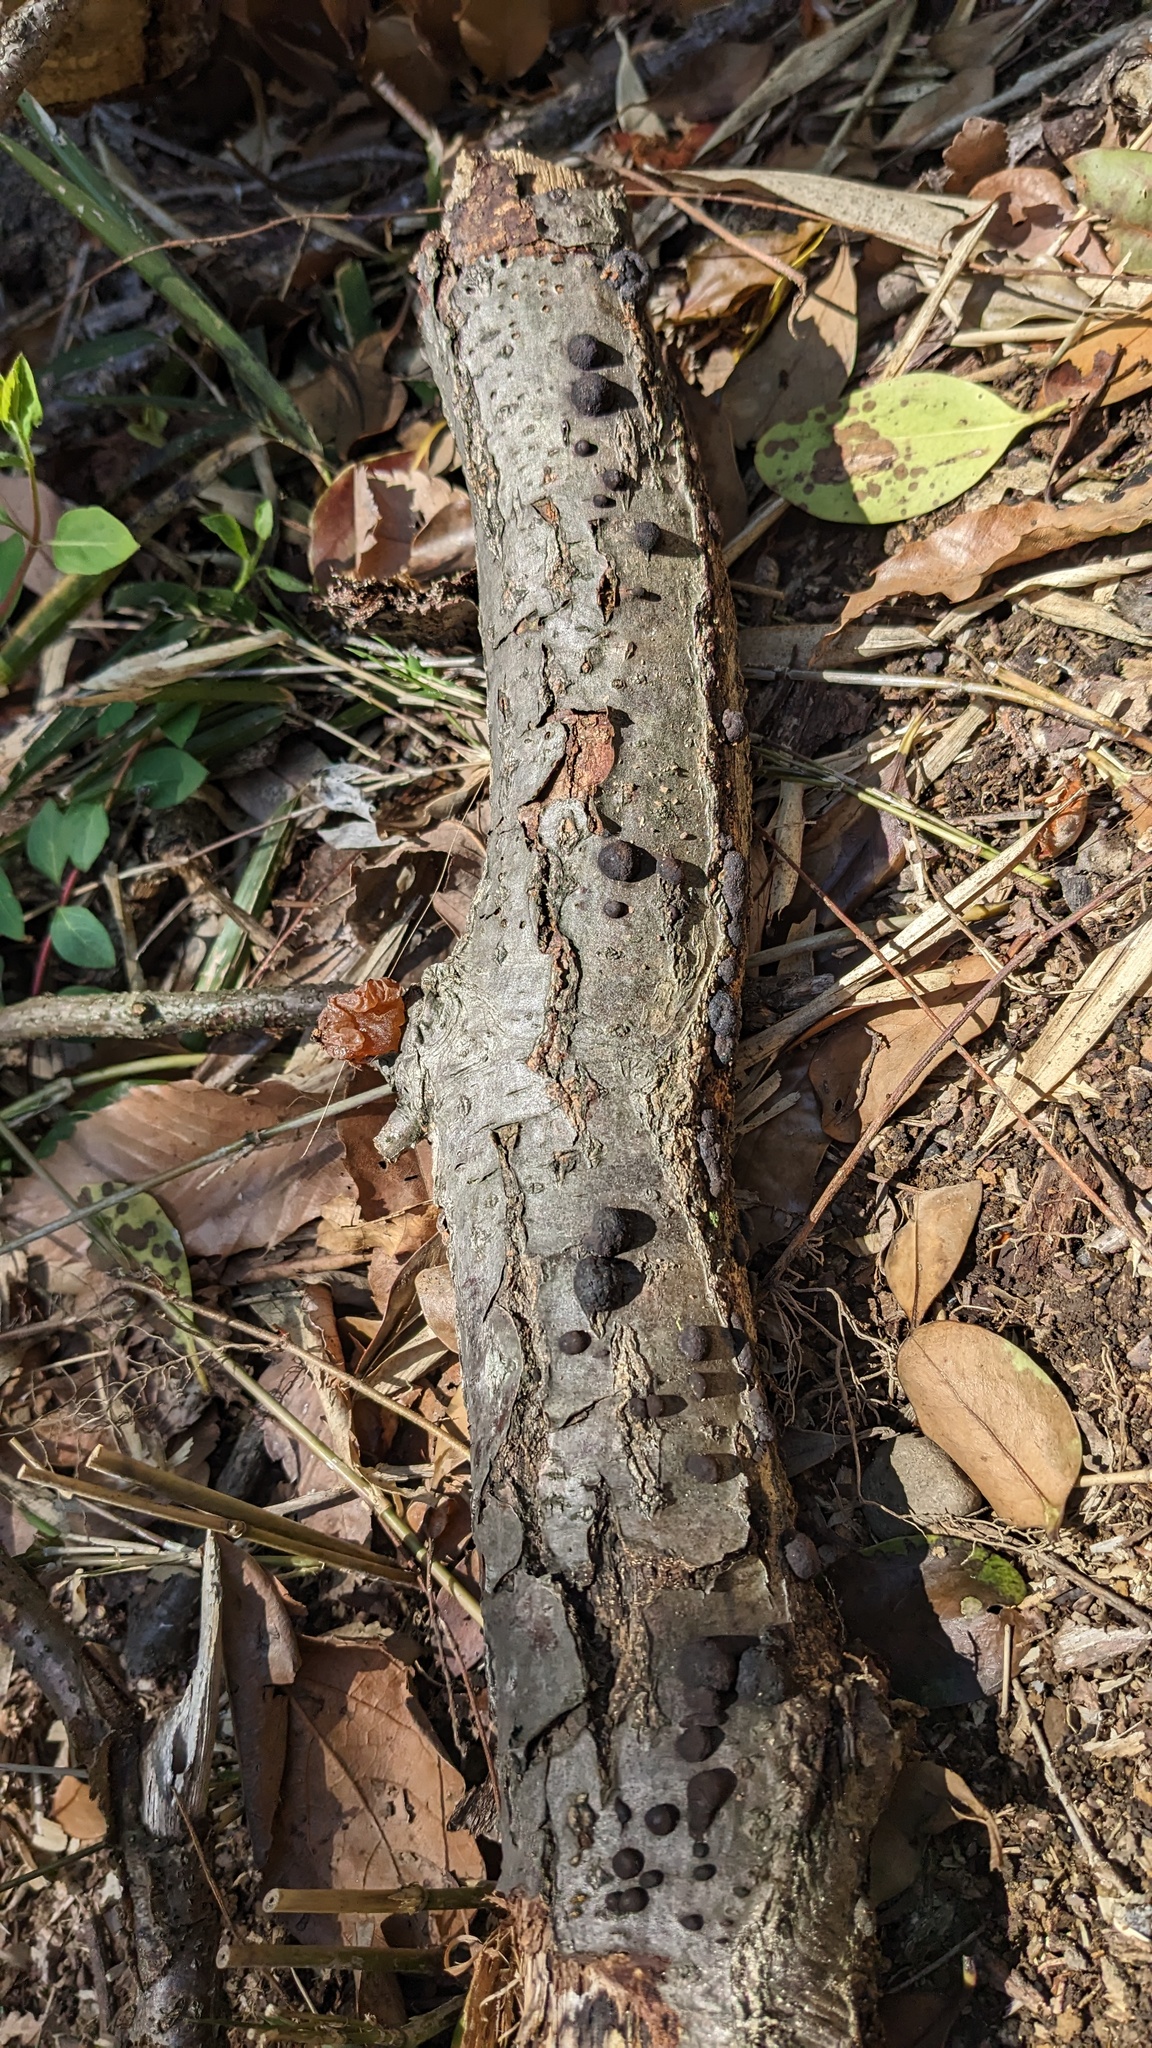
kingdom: Fungi
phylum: Ascomycota
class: Sordariomycetes
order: Xylariales
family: Hypoxylaceae
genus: Annulohypoxylon
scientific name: Annulohypoxylon truncatum
